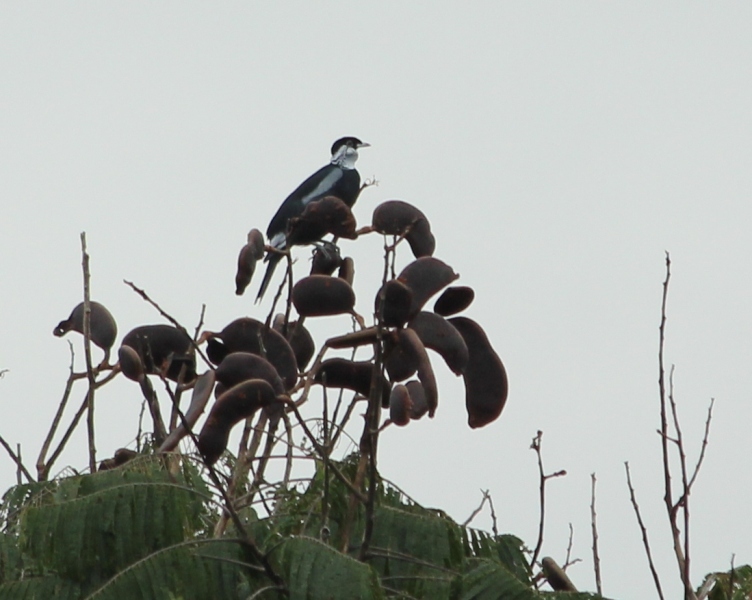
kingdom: Animalia
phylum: Chordata
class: Aves
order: Passeriformes
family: Cotingidae
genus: Gymnoderus
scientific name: Gymnoderus foetidus
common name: Bare-necked fruitcrow
